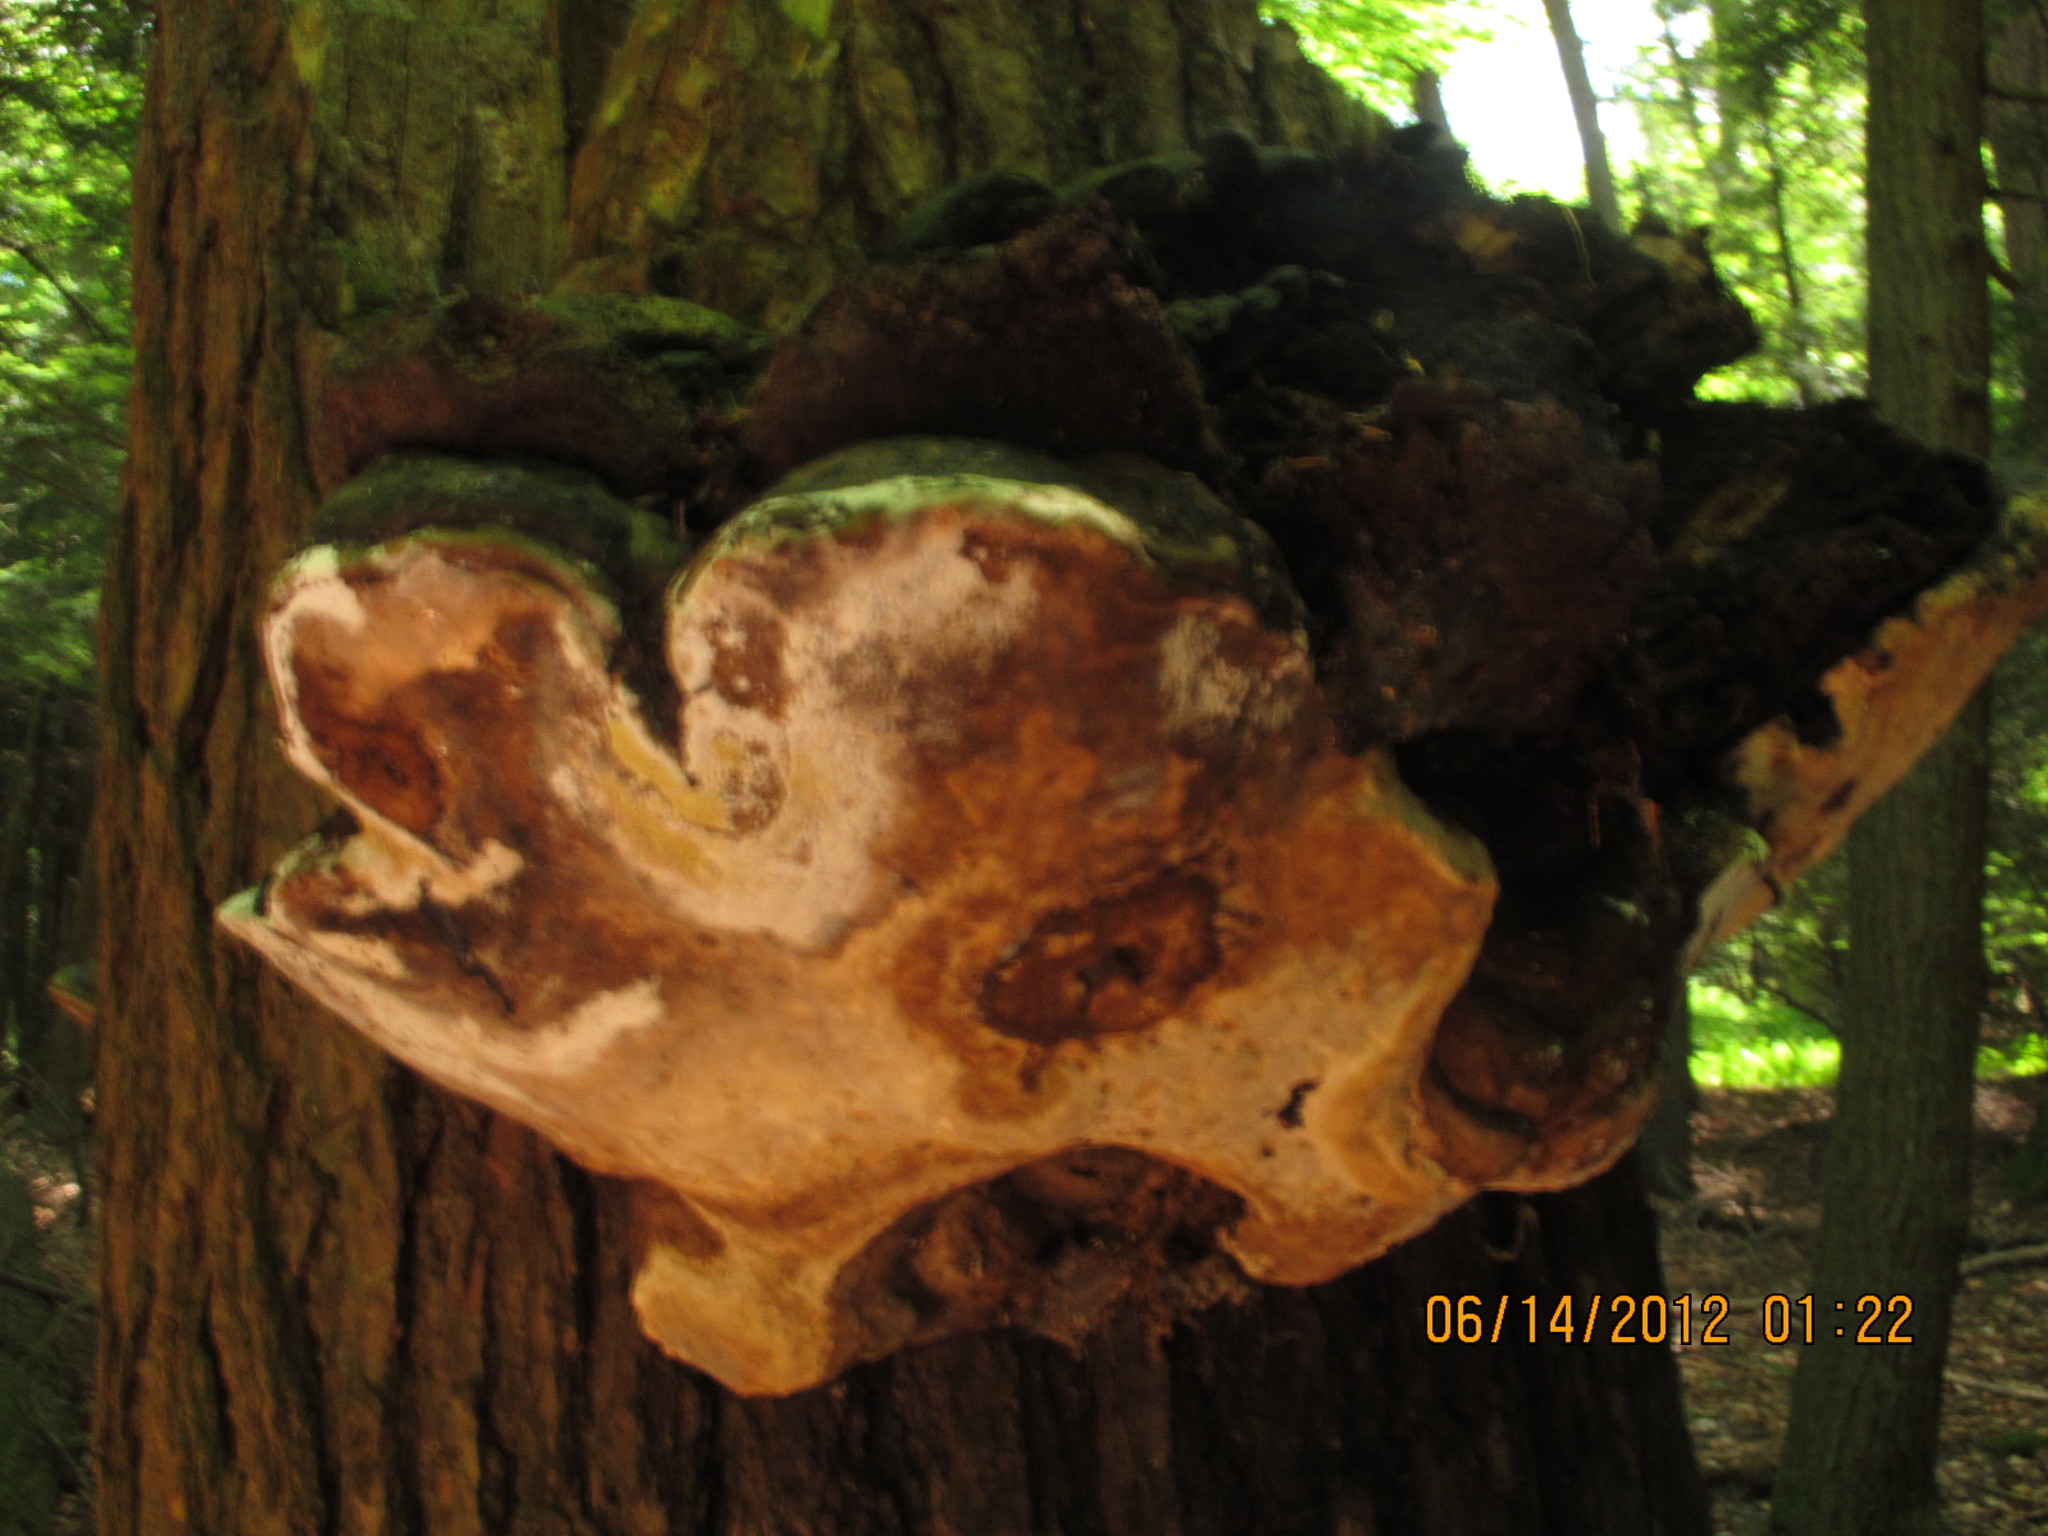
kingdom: Fungi
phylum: Basidiomycota
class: Agaricomycetes
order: Hymenochaetales
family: Hymenochaetaceae
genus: Pseudoinonotus
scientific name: Pseudoinonotus dryadeus
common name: Oak bracket
